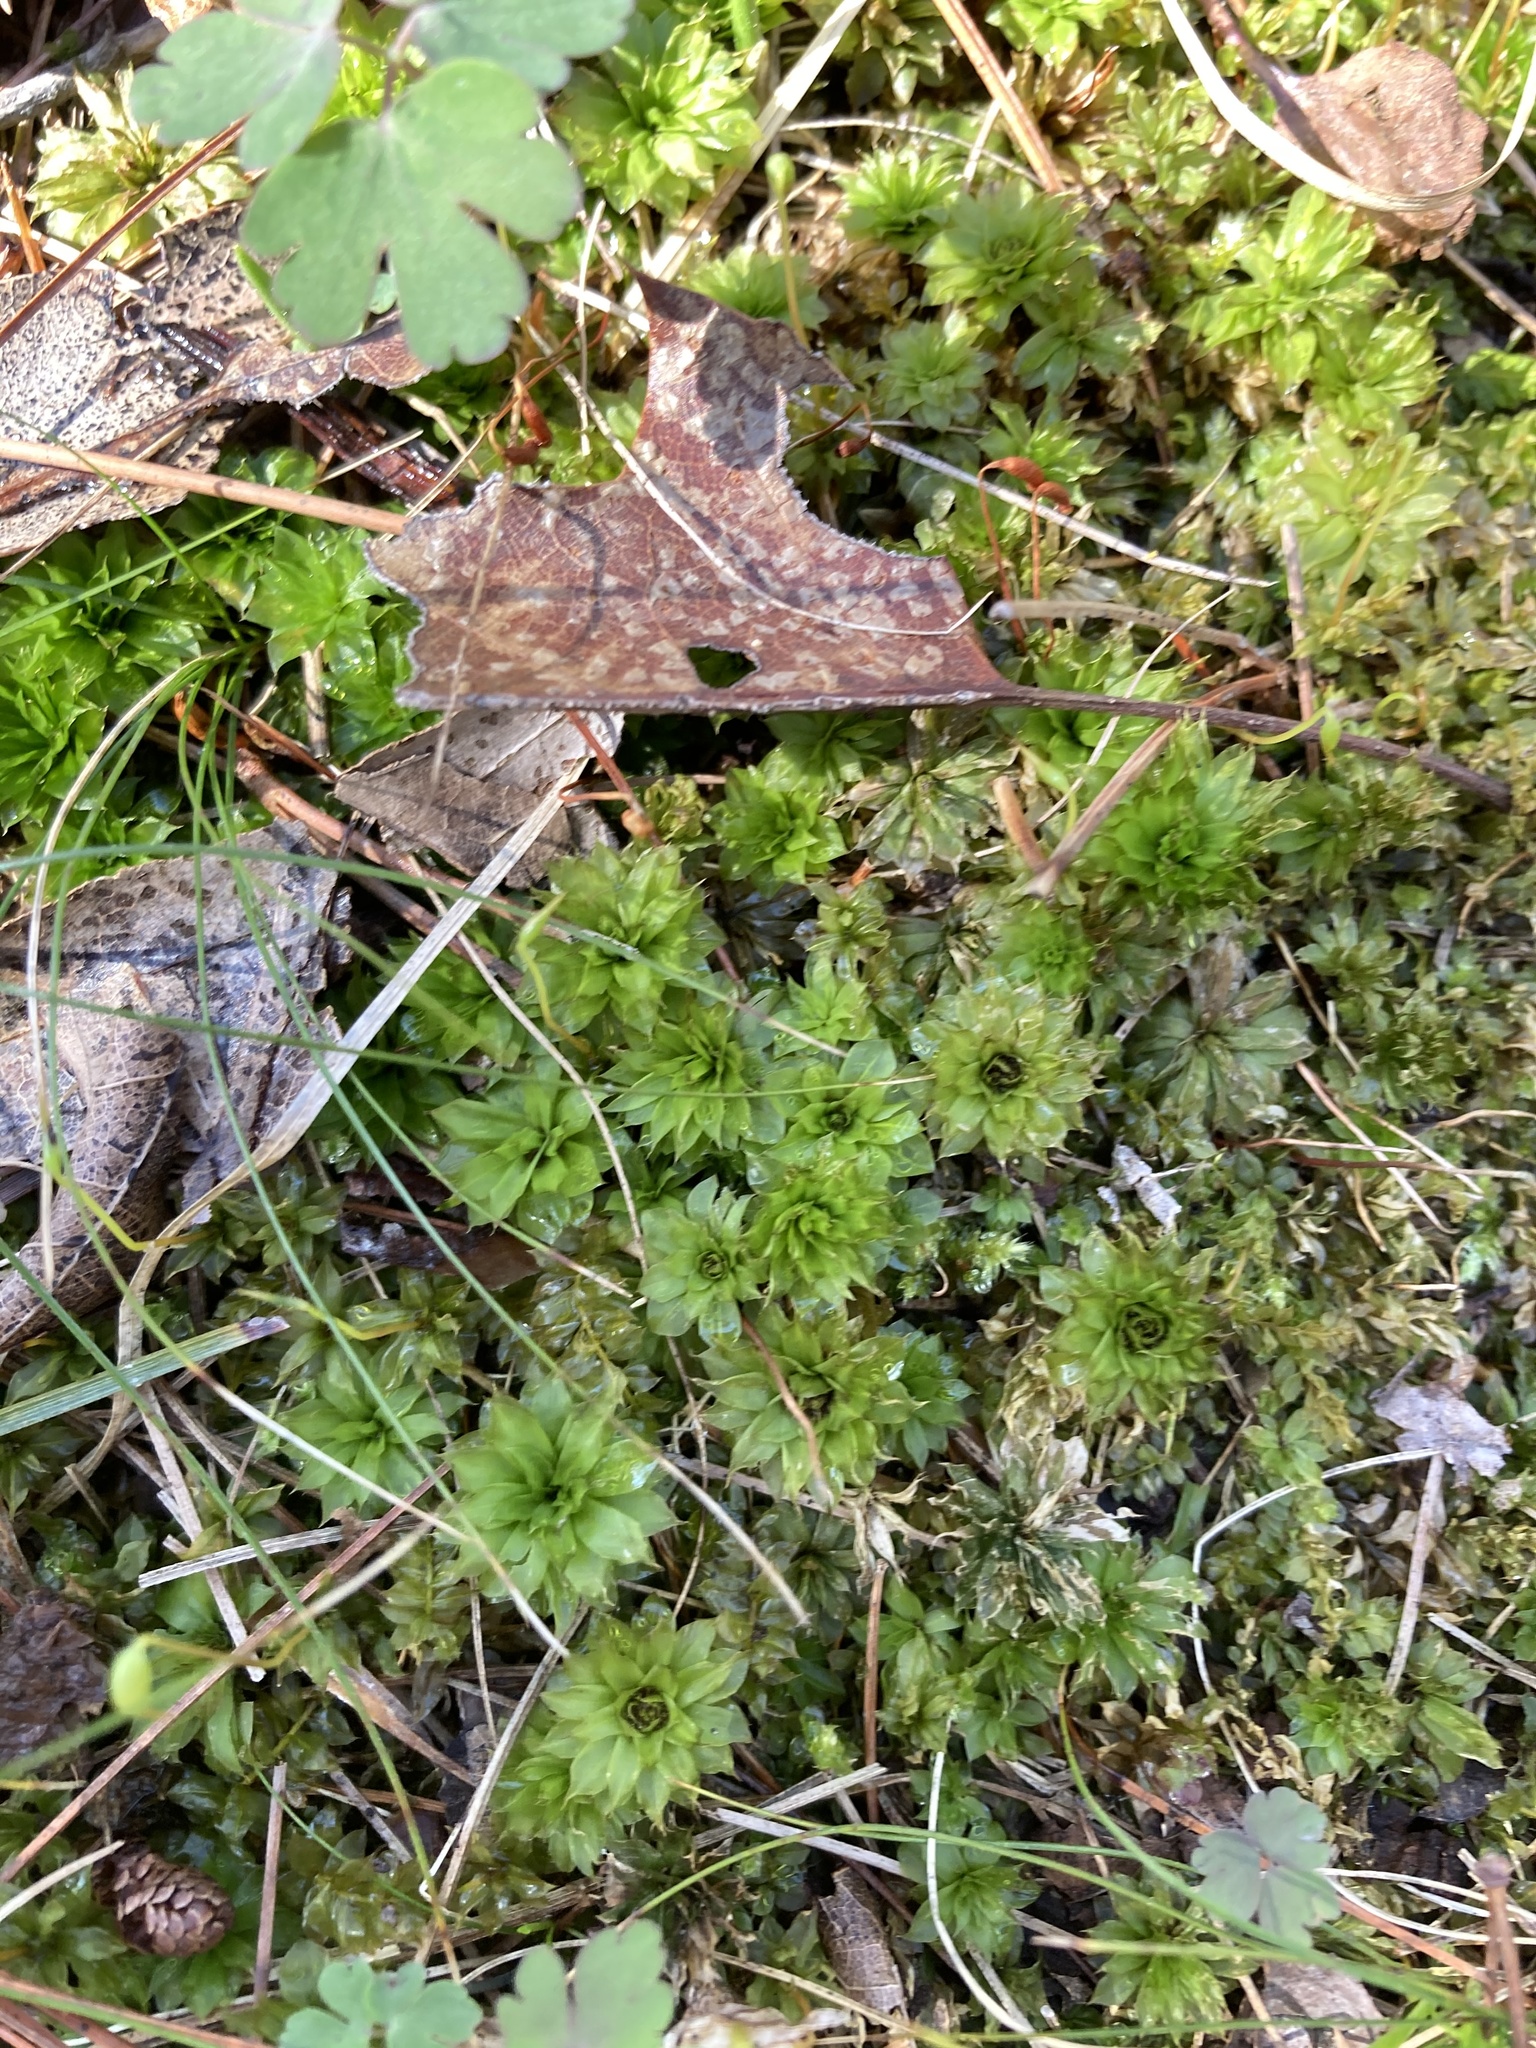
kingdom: Plantae
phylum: Bryophyta
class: Bryopsida
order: Bryales
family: Bryaceae
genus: Rhodobryum
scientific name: Rhodobryum ontariense
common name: Ontario rhodobryum moss
